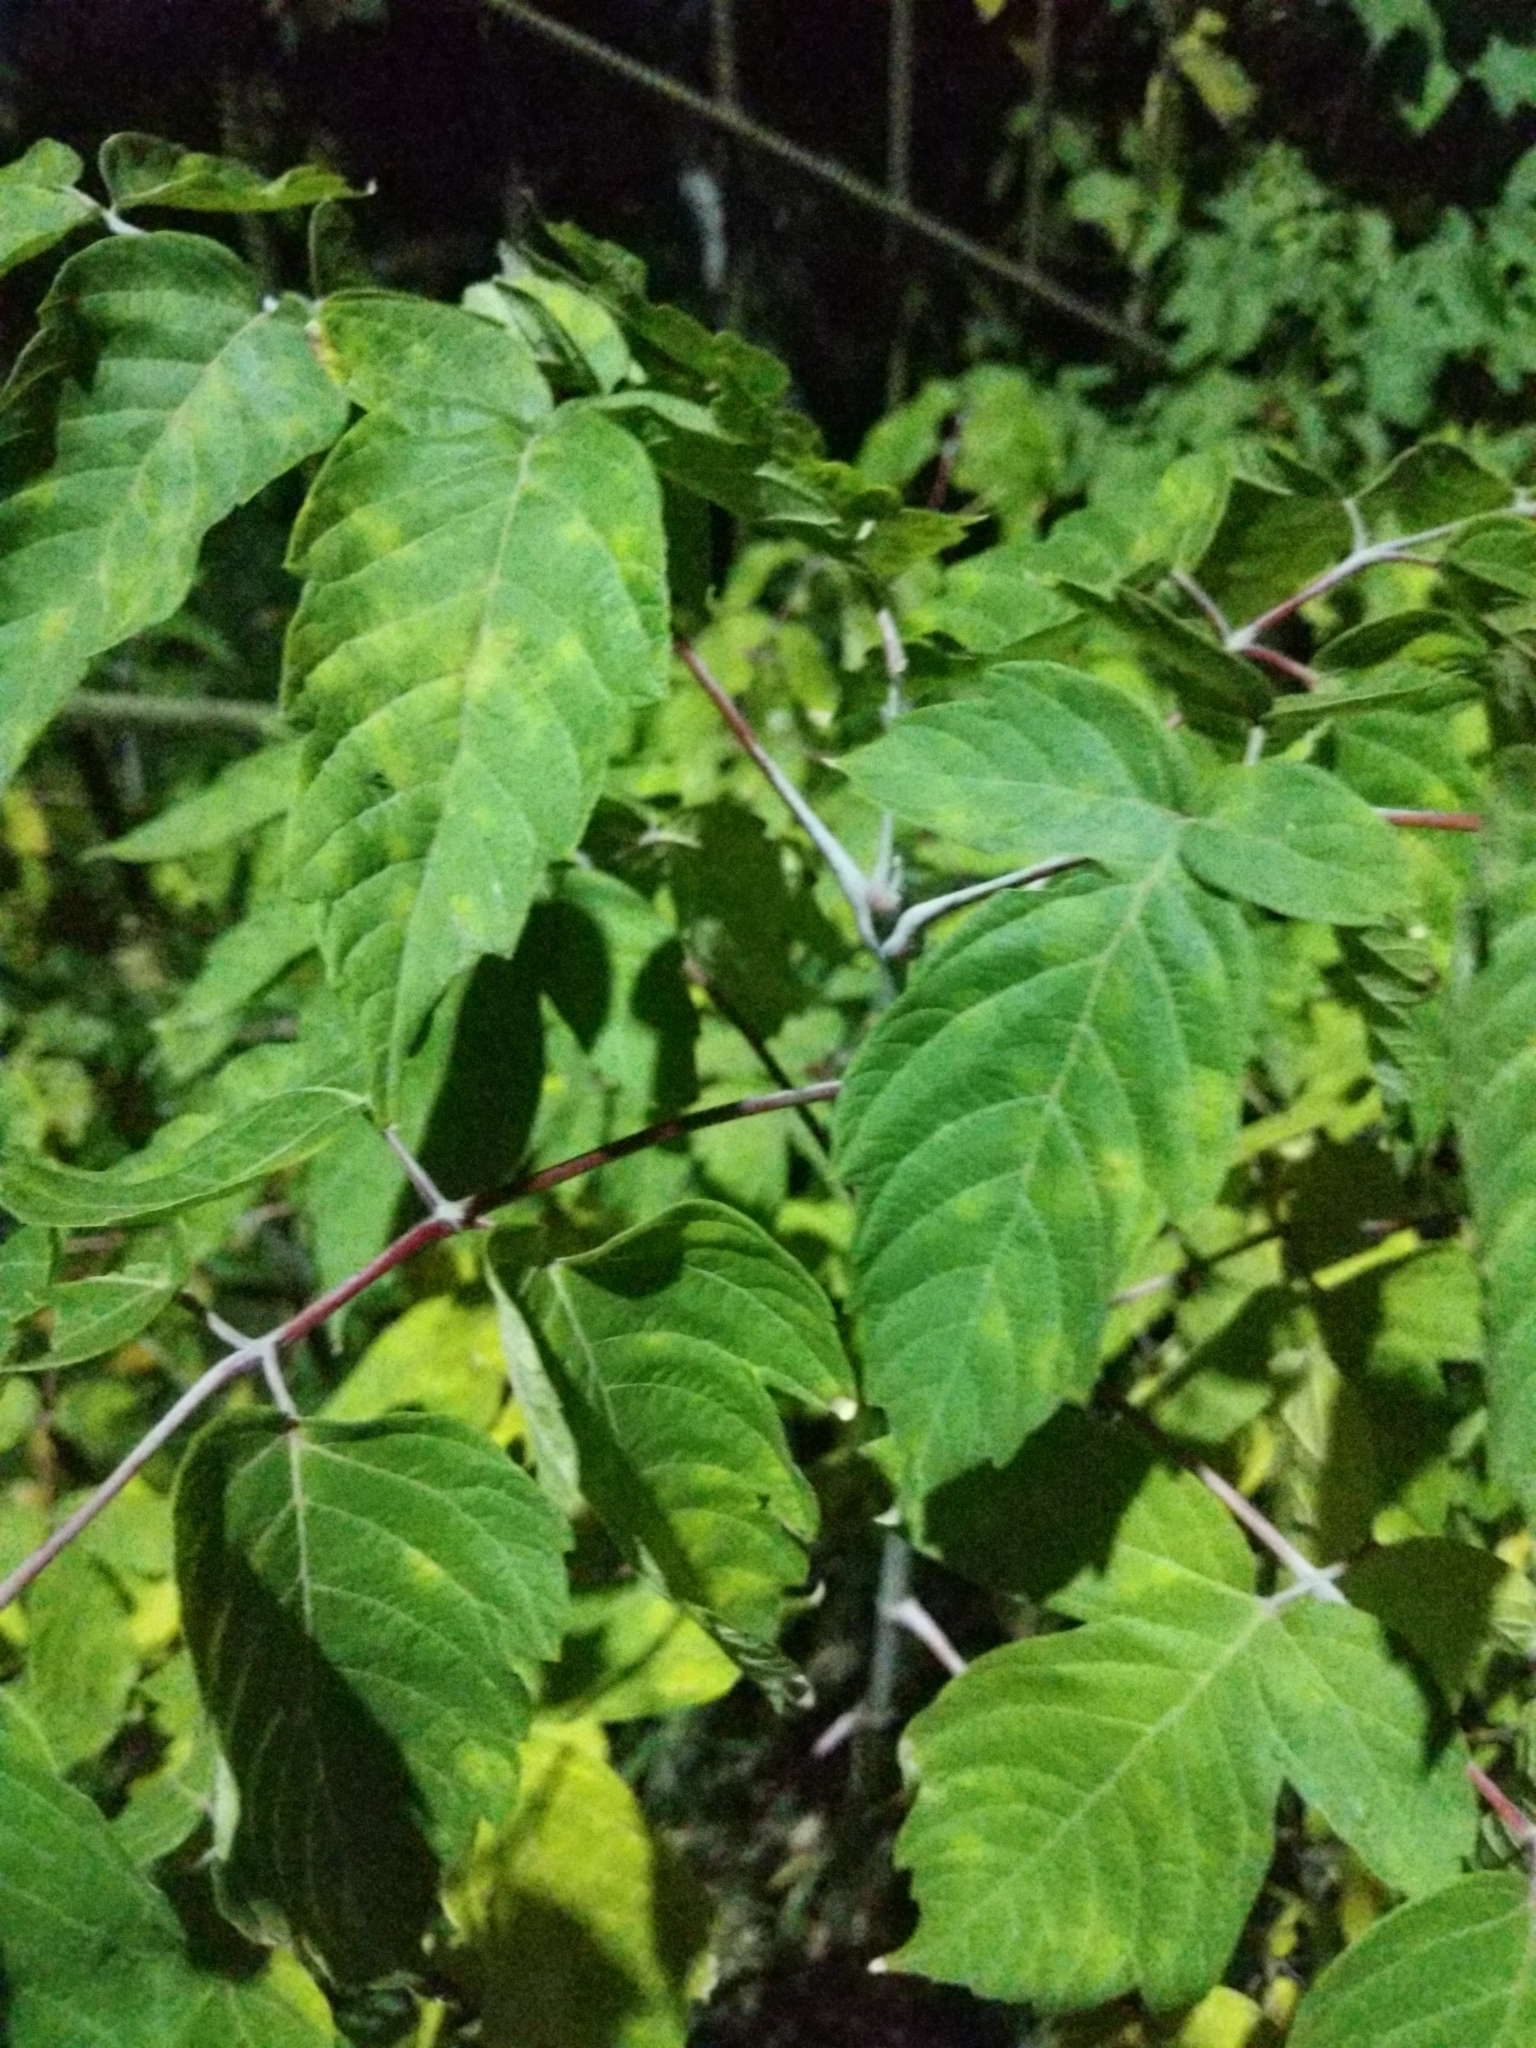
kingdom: Plantae
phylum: Tracheophyta
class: Magnoliopsida
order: Sapindales
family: Sapindaceae
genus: Acer
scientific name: Acer negundo
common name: Ashleaf maple
